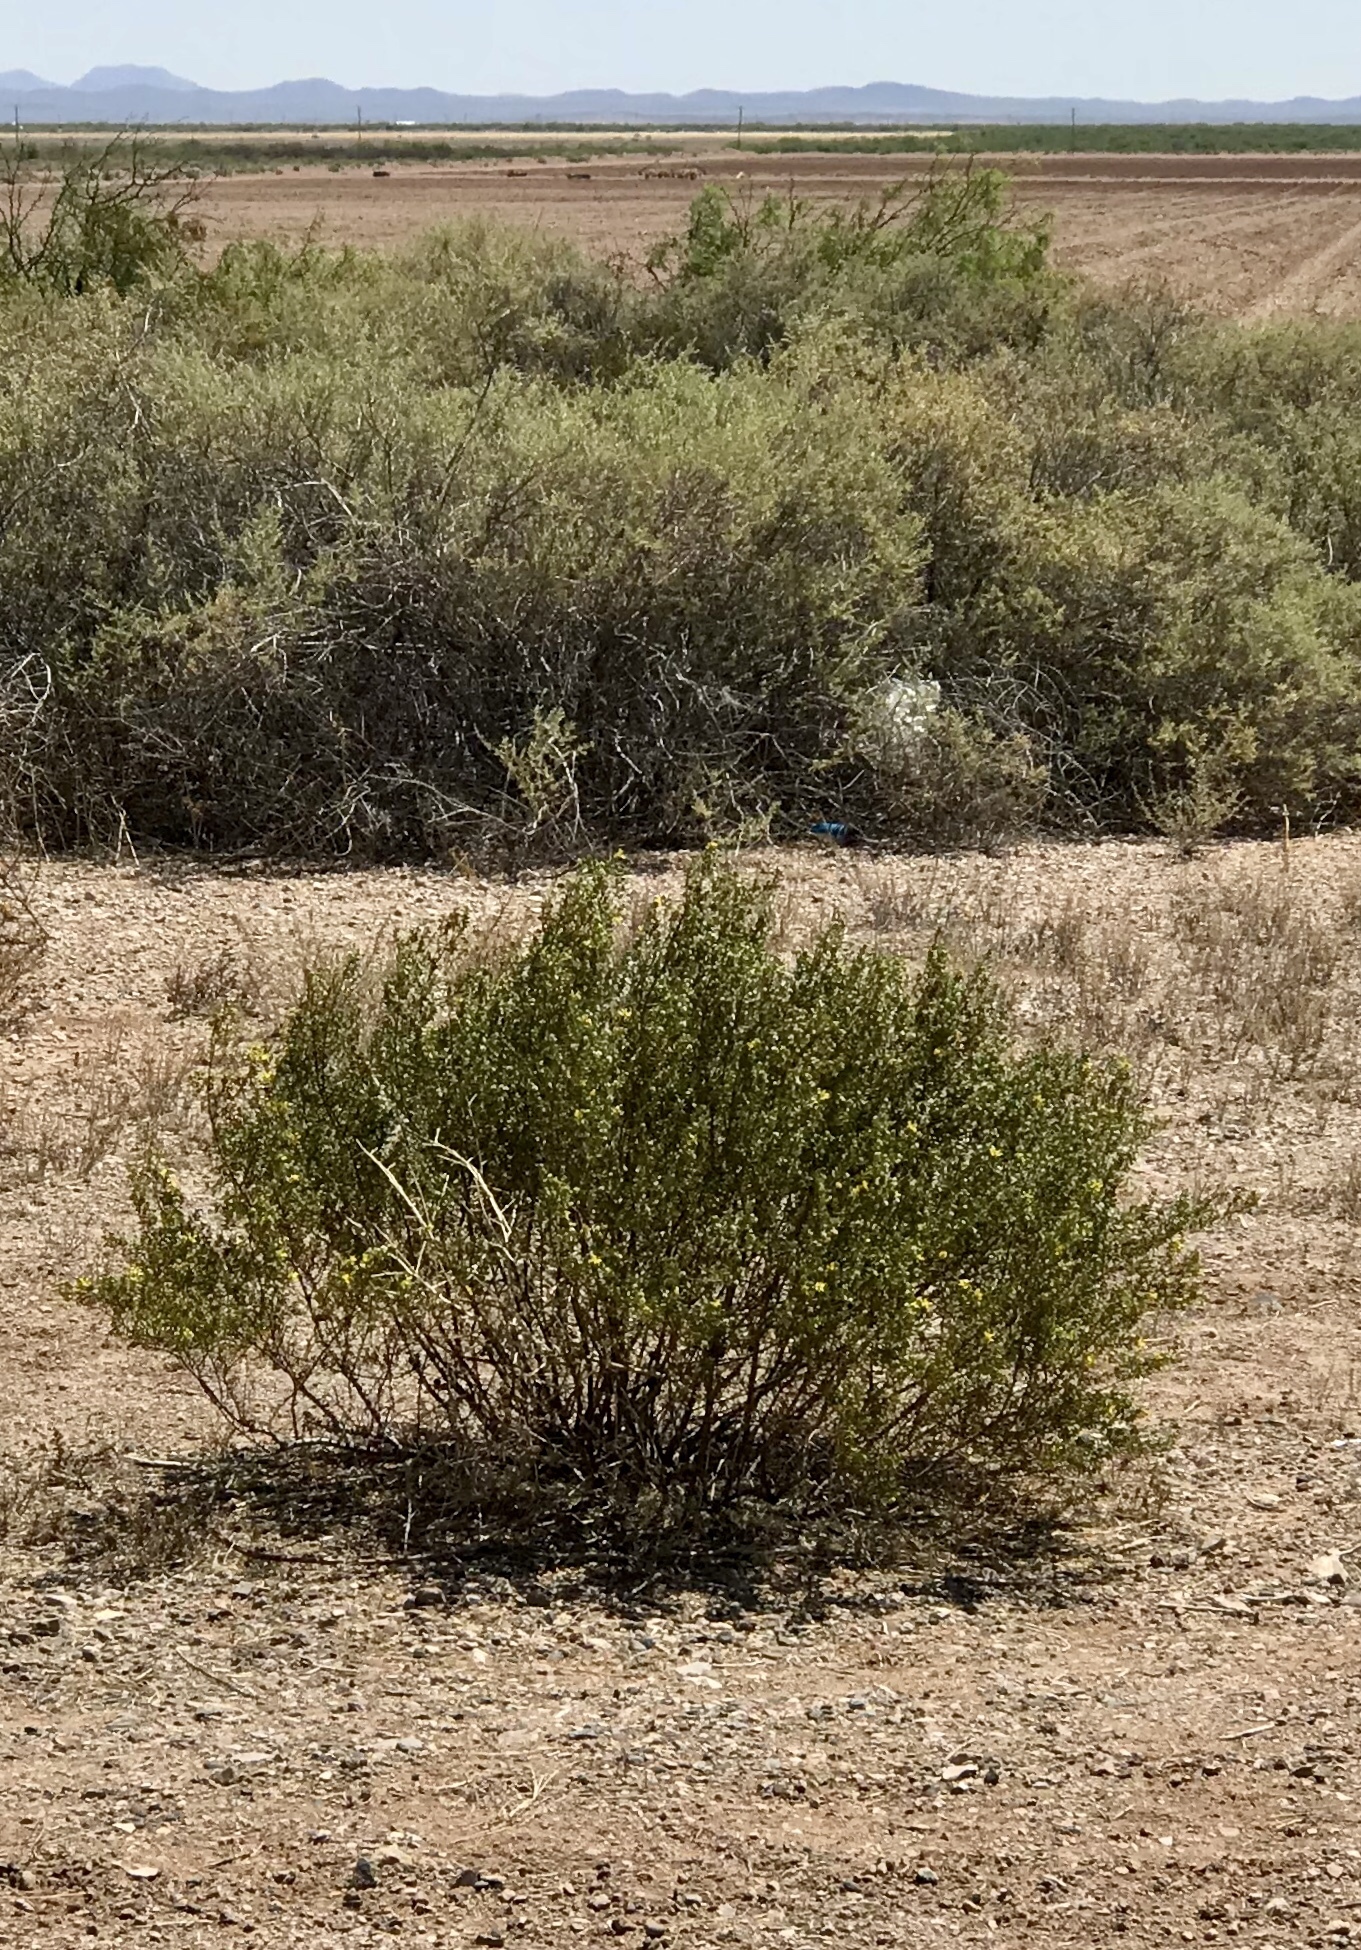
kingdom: Plantae
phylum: Tracheophyta
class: Magnoliopsida
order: Zygophyllales
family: Zygophyllaceae
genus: Larrea
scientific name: Larrea tridentata
